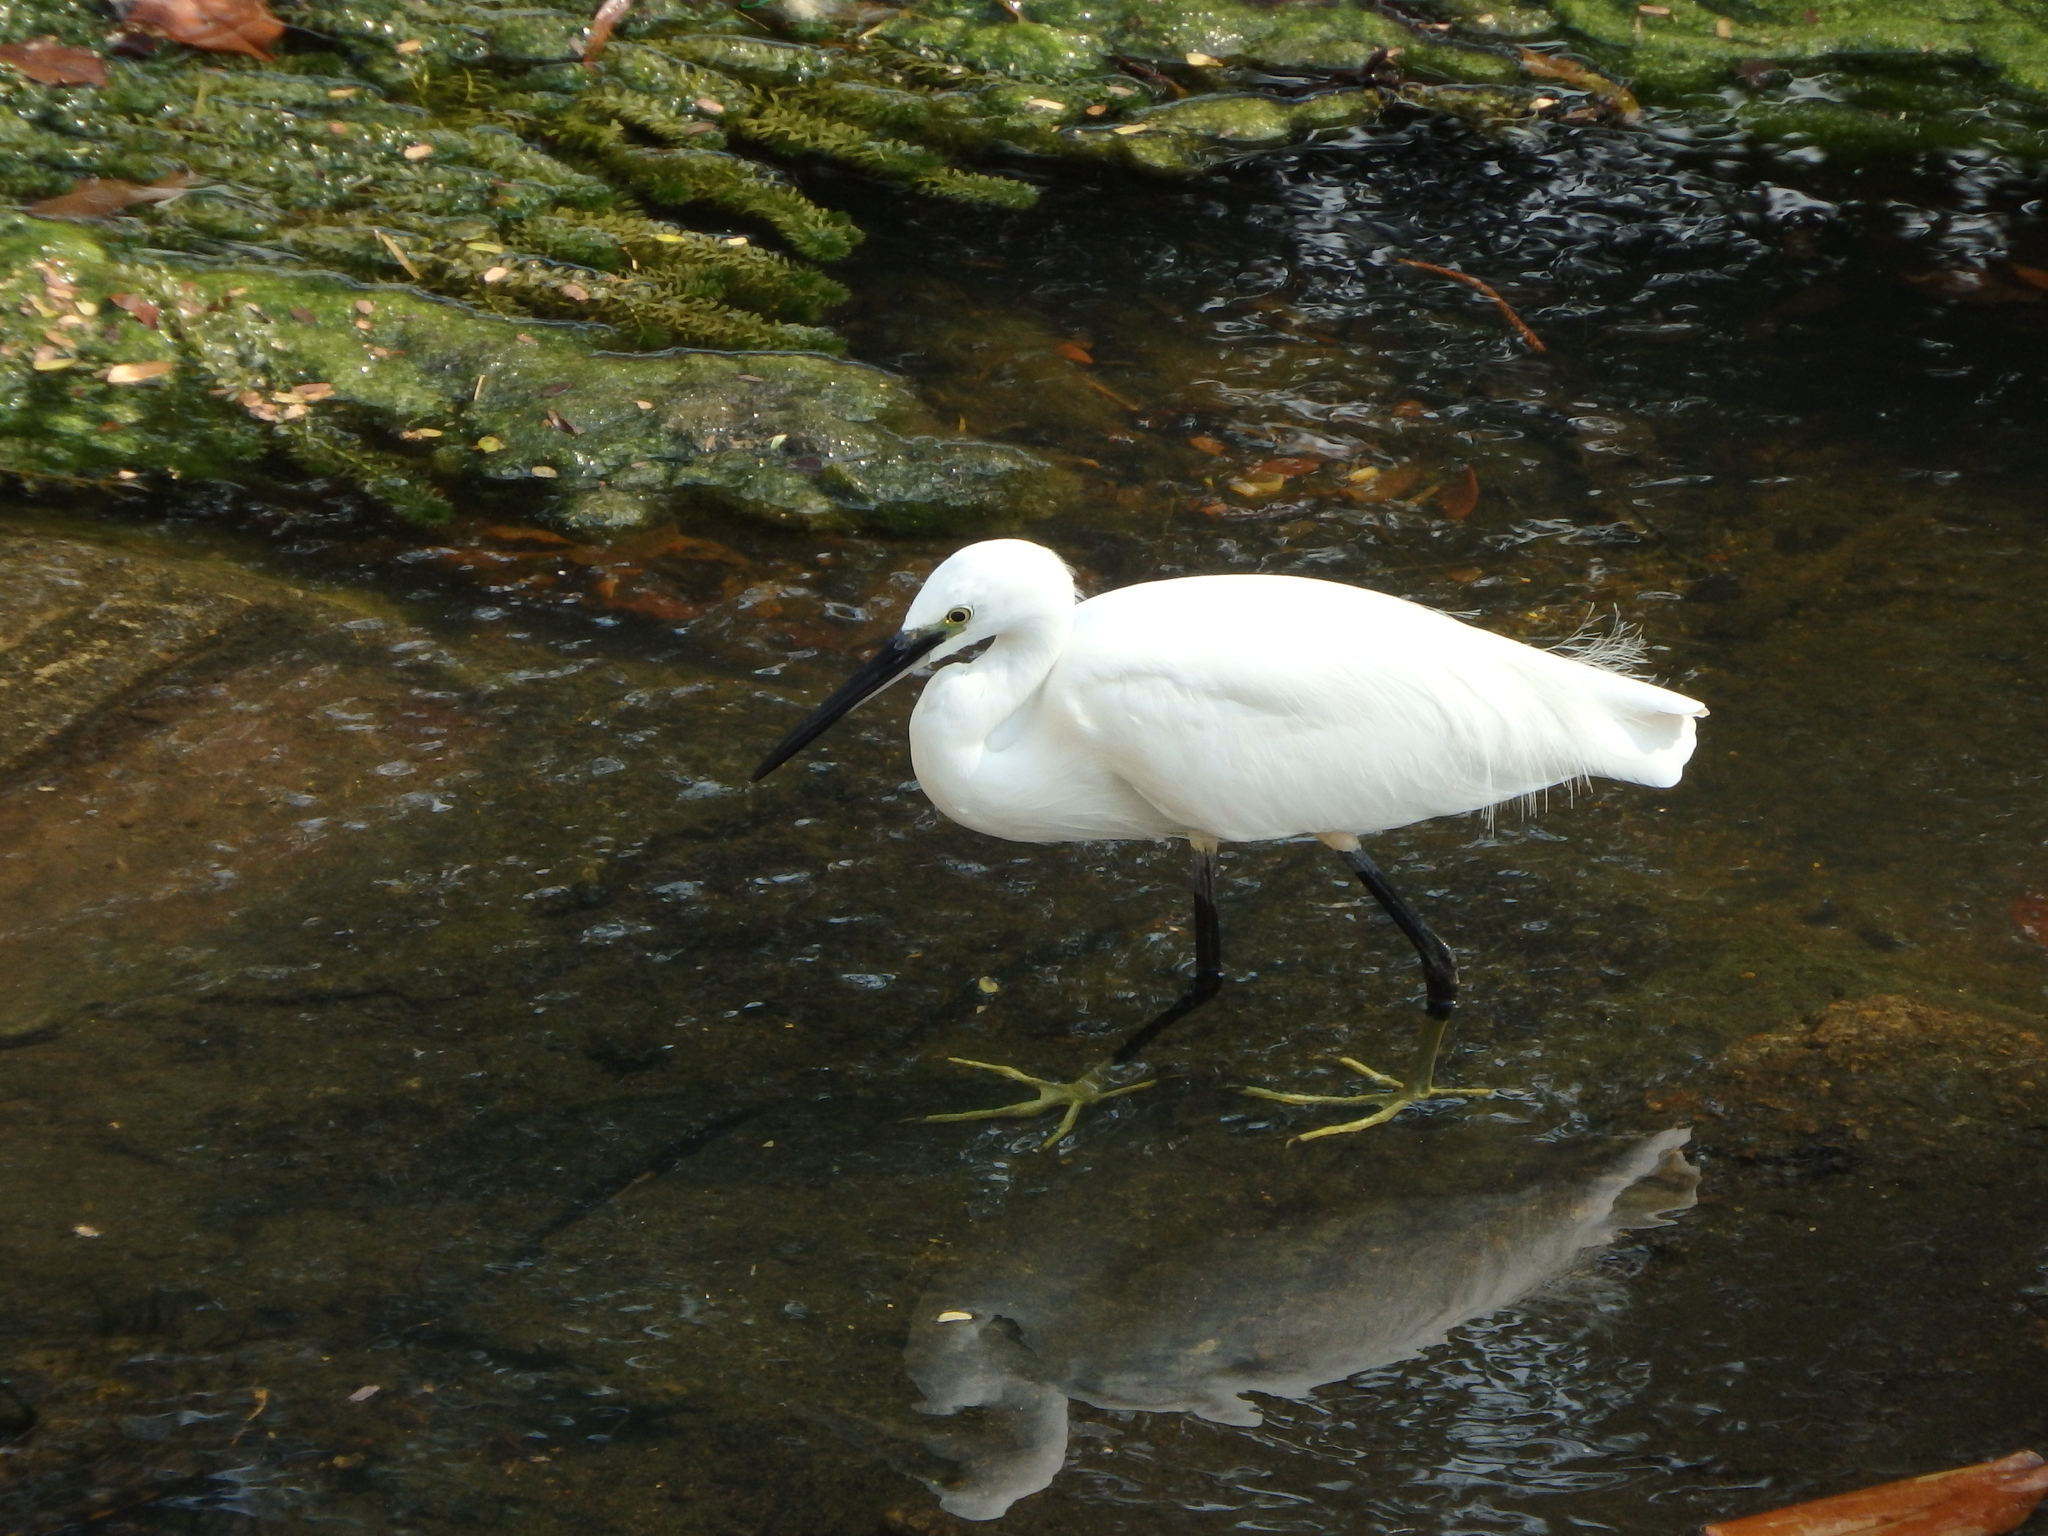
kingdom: Animalia
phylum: Chordata
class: Aves
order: Pelecaniformes
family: Ardeidae
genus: Egretta
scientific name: Egretta garzetta
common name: Little egret
